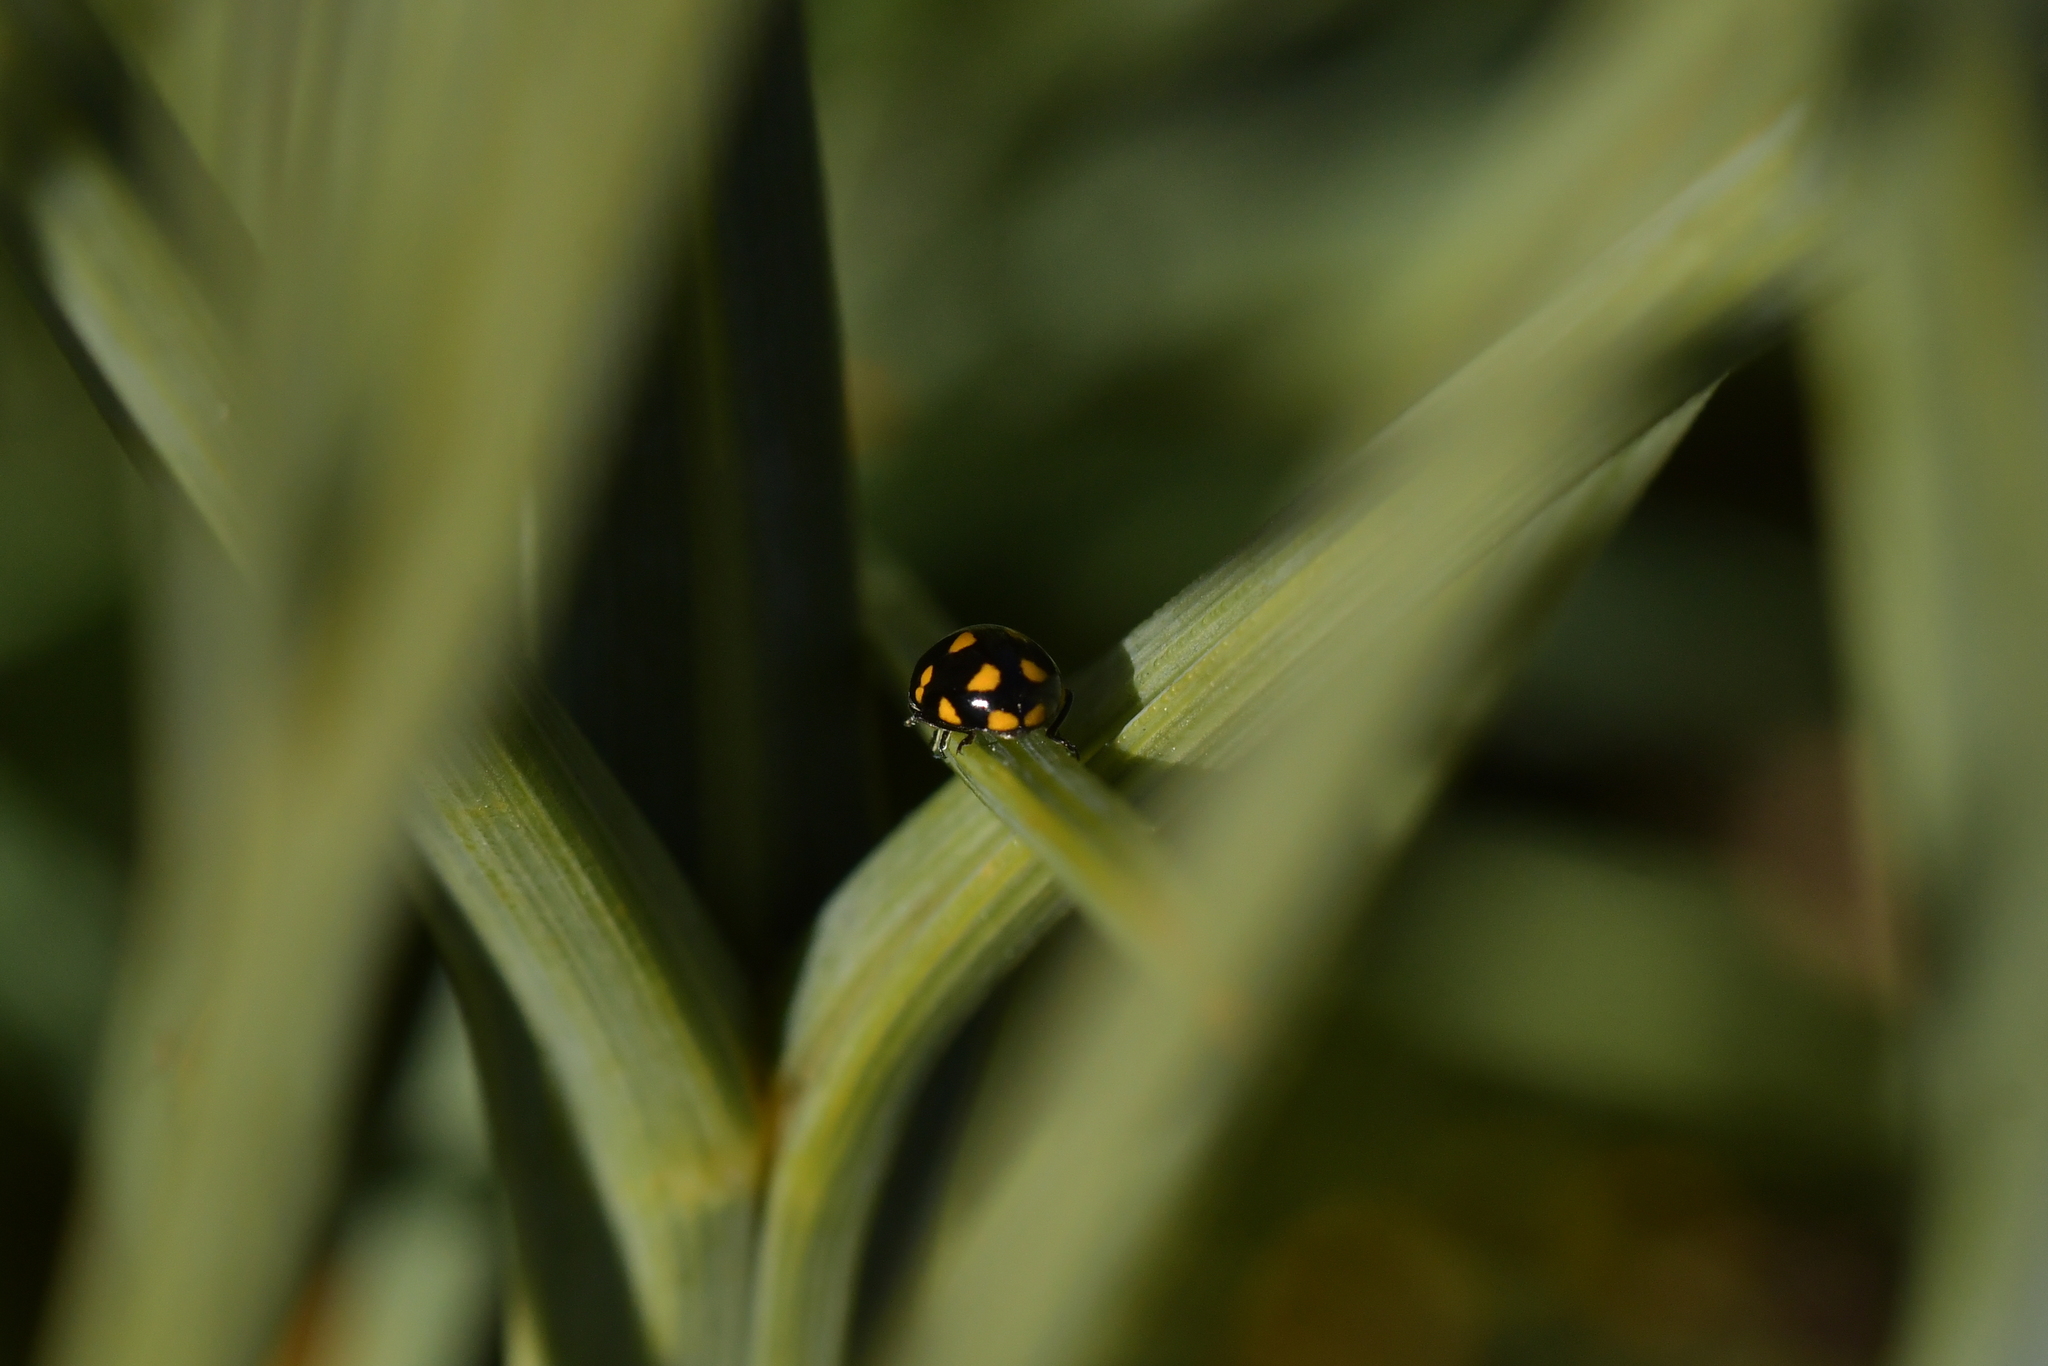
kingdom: Animalia
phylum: Arthropoda
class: Insecta
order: Coleoptera
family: Coccinellidae
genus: Coccinella
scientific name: Coccinella leonina
